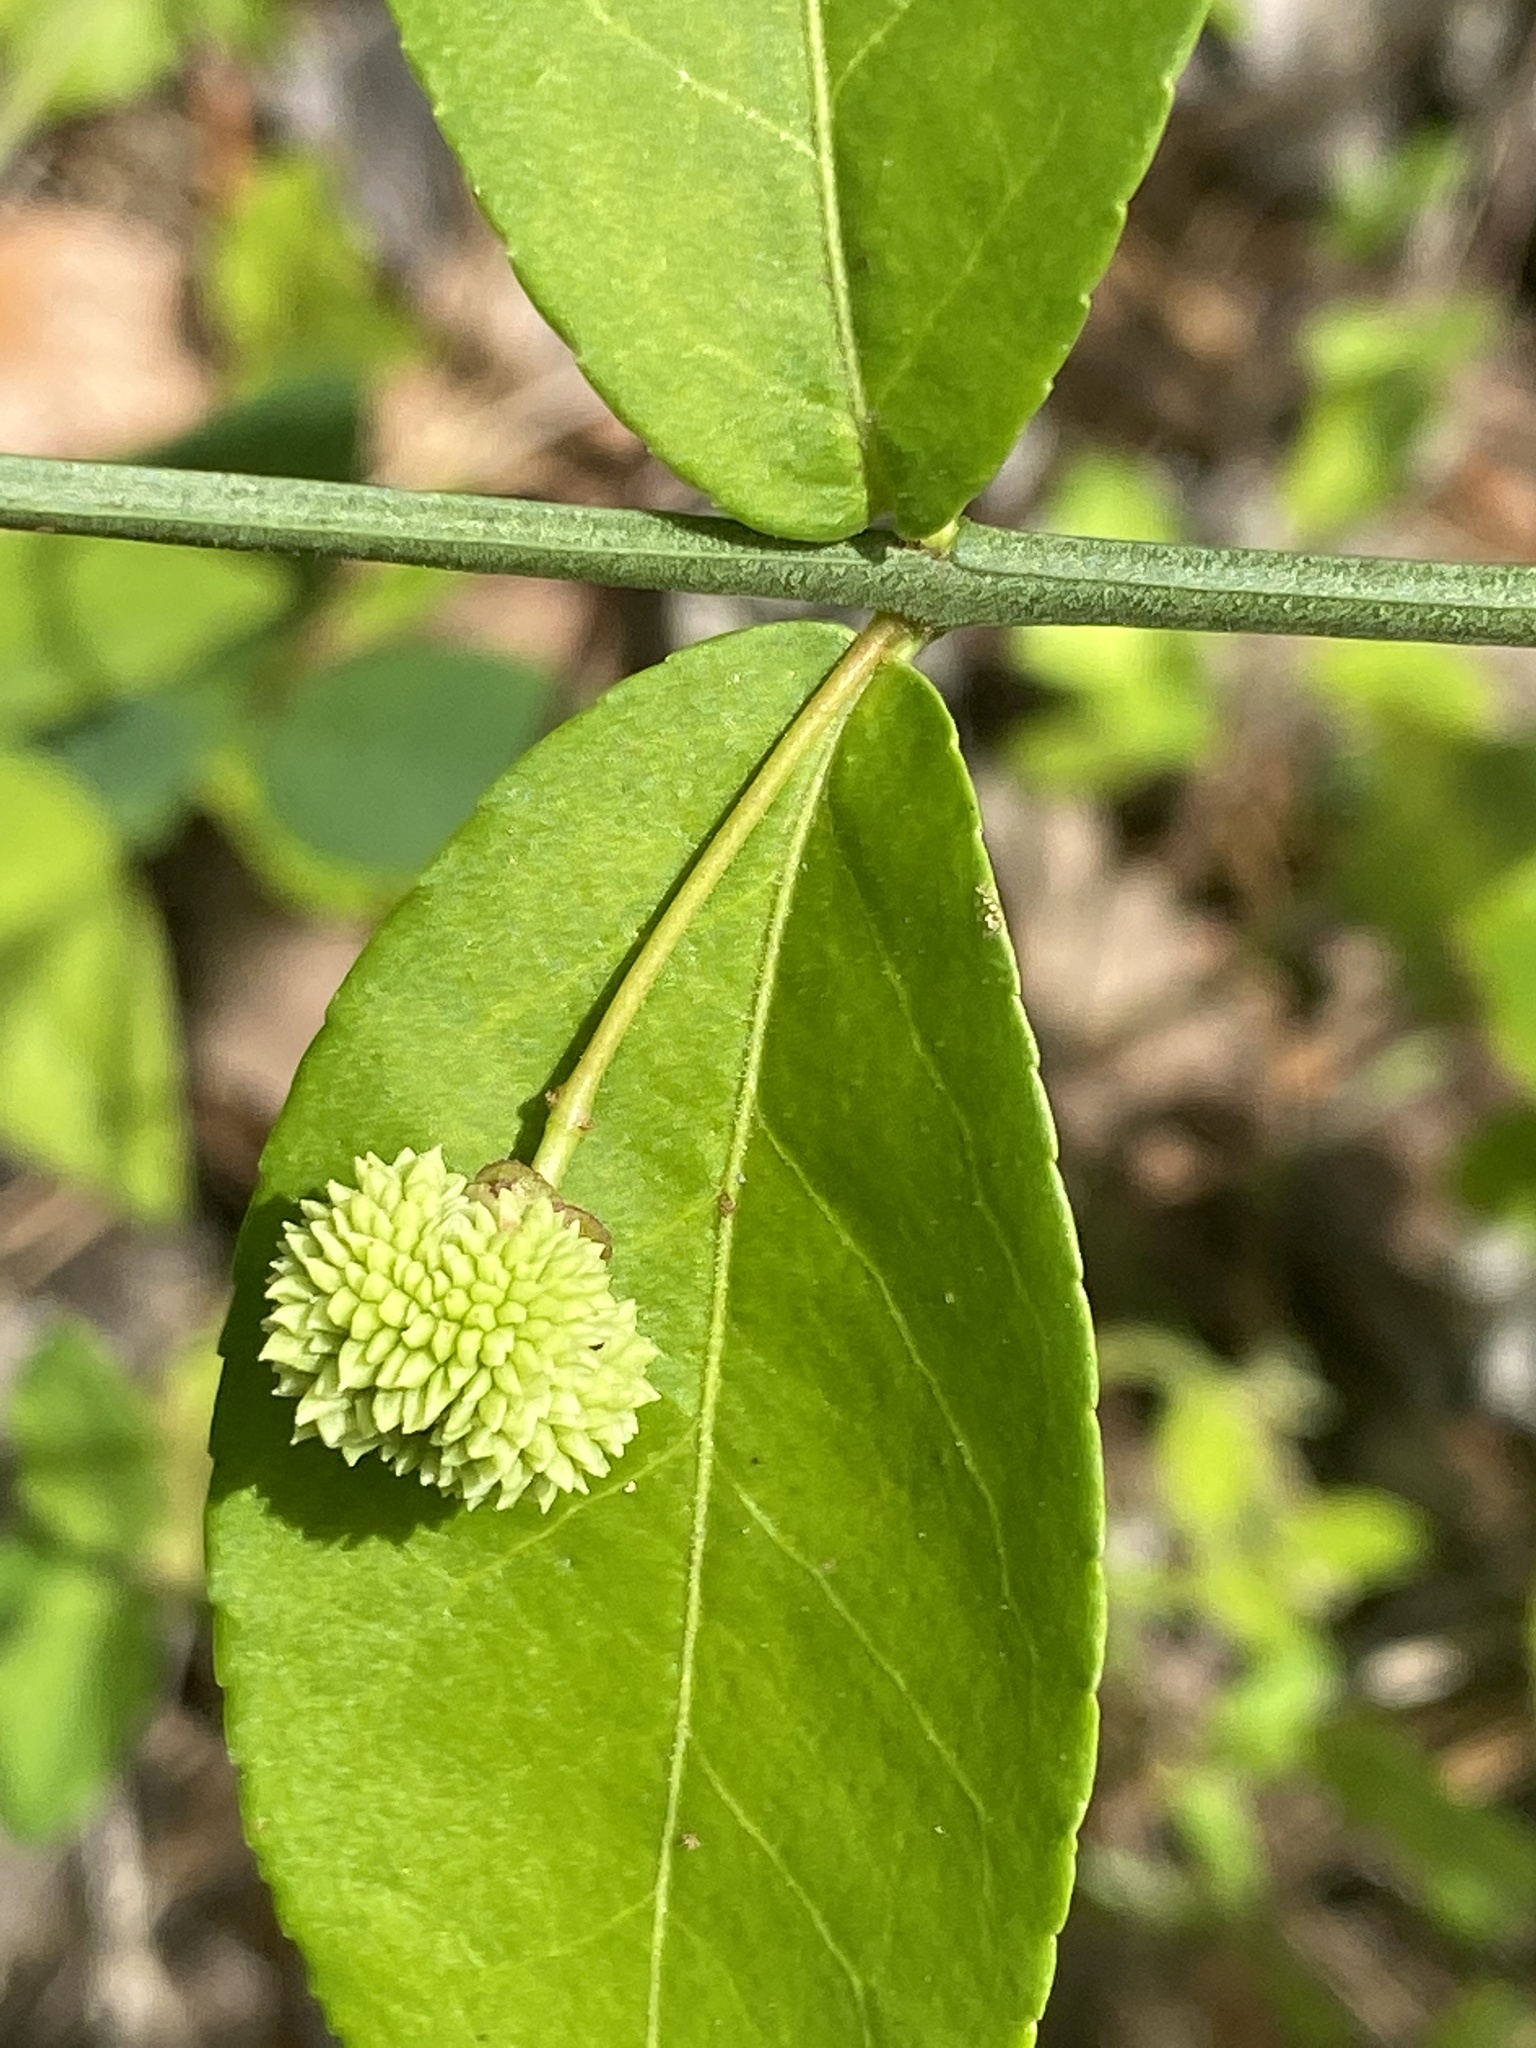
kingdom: Plantae
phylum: Tracheophyta
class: Magnoliopsida
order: Celastrales
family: Celastraceae
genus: Euonymus
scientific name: Euonymus americanus
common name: Bursting-heart
